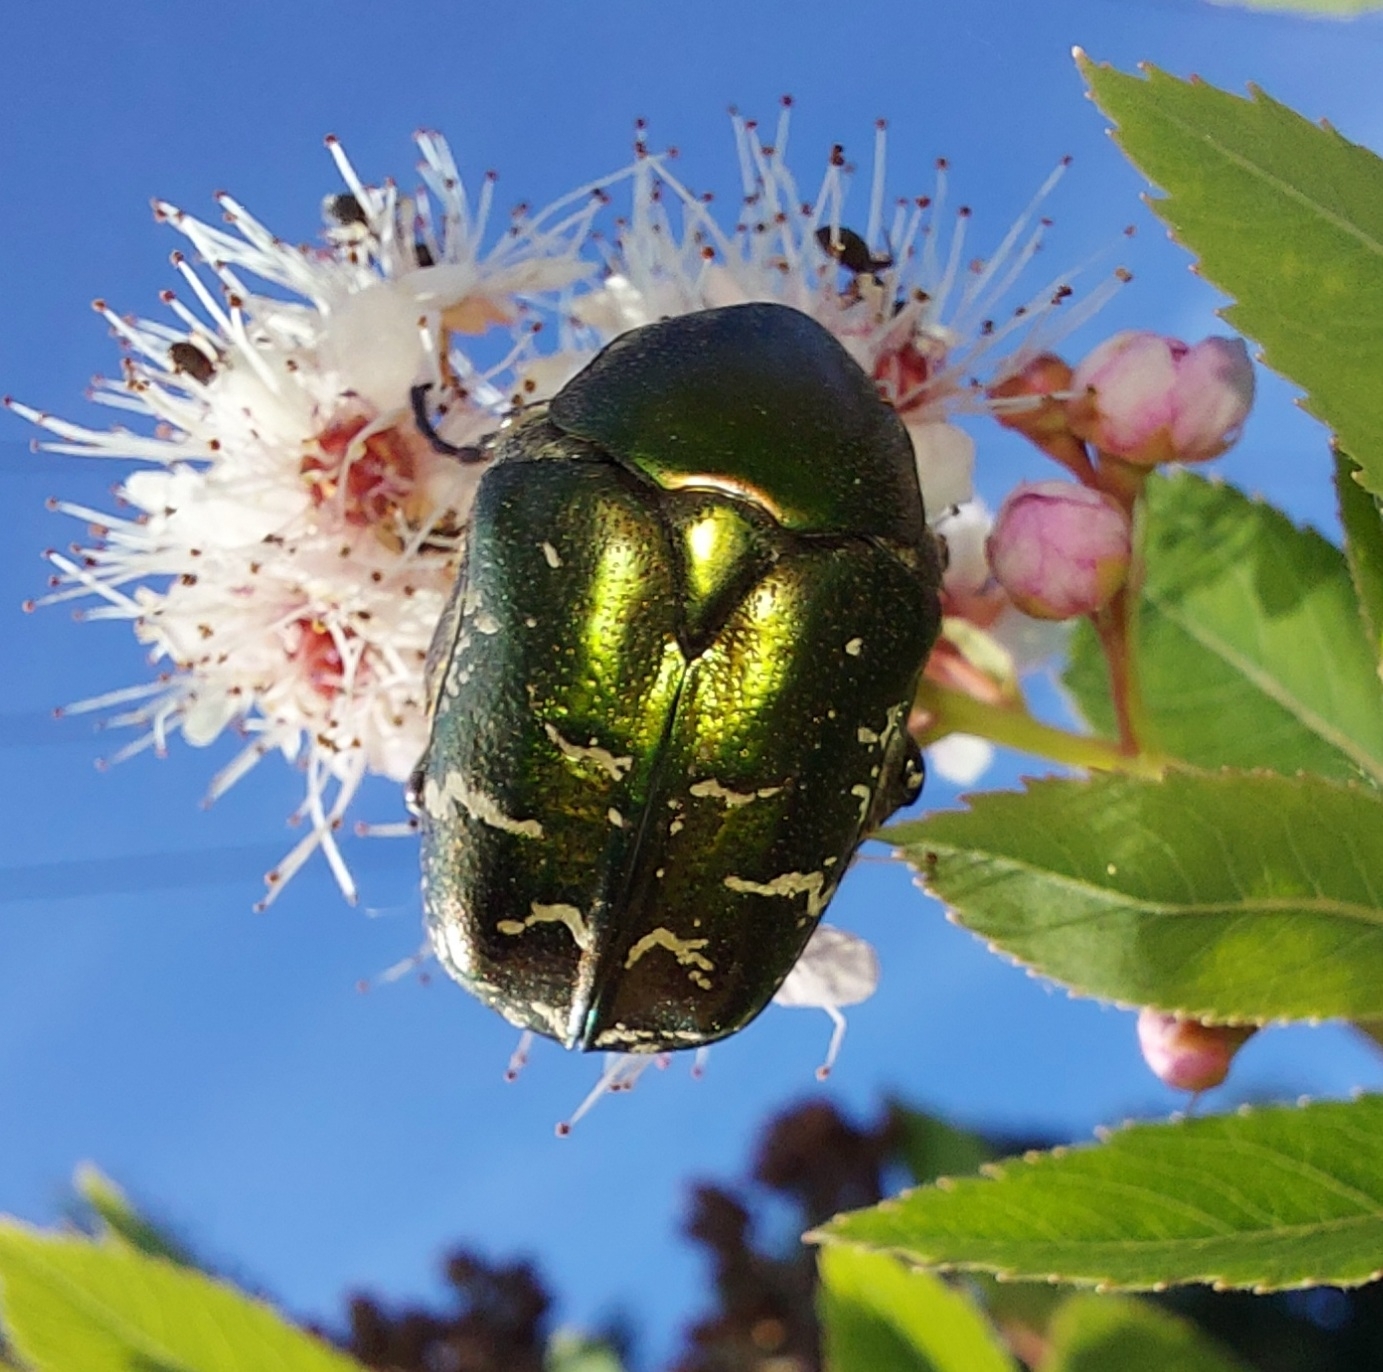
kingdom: Animalia
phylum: Arthropoda
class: Insecta
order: Coleoptera
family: Scarabaeidae
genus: Protaetia
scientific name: Protaetia cuprea
